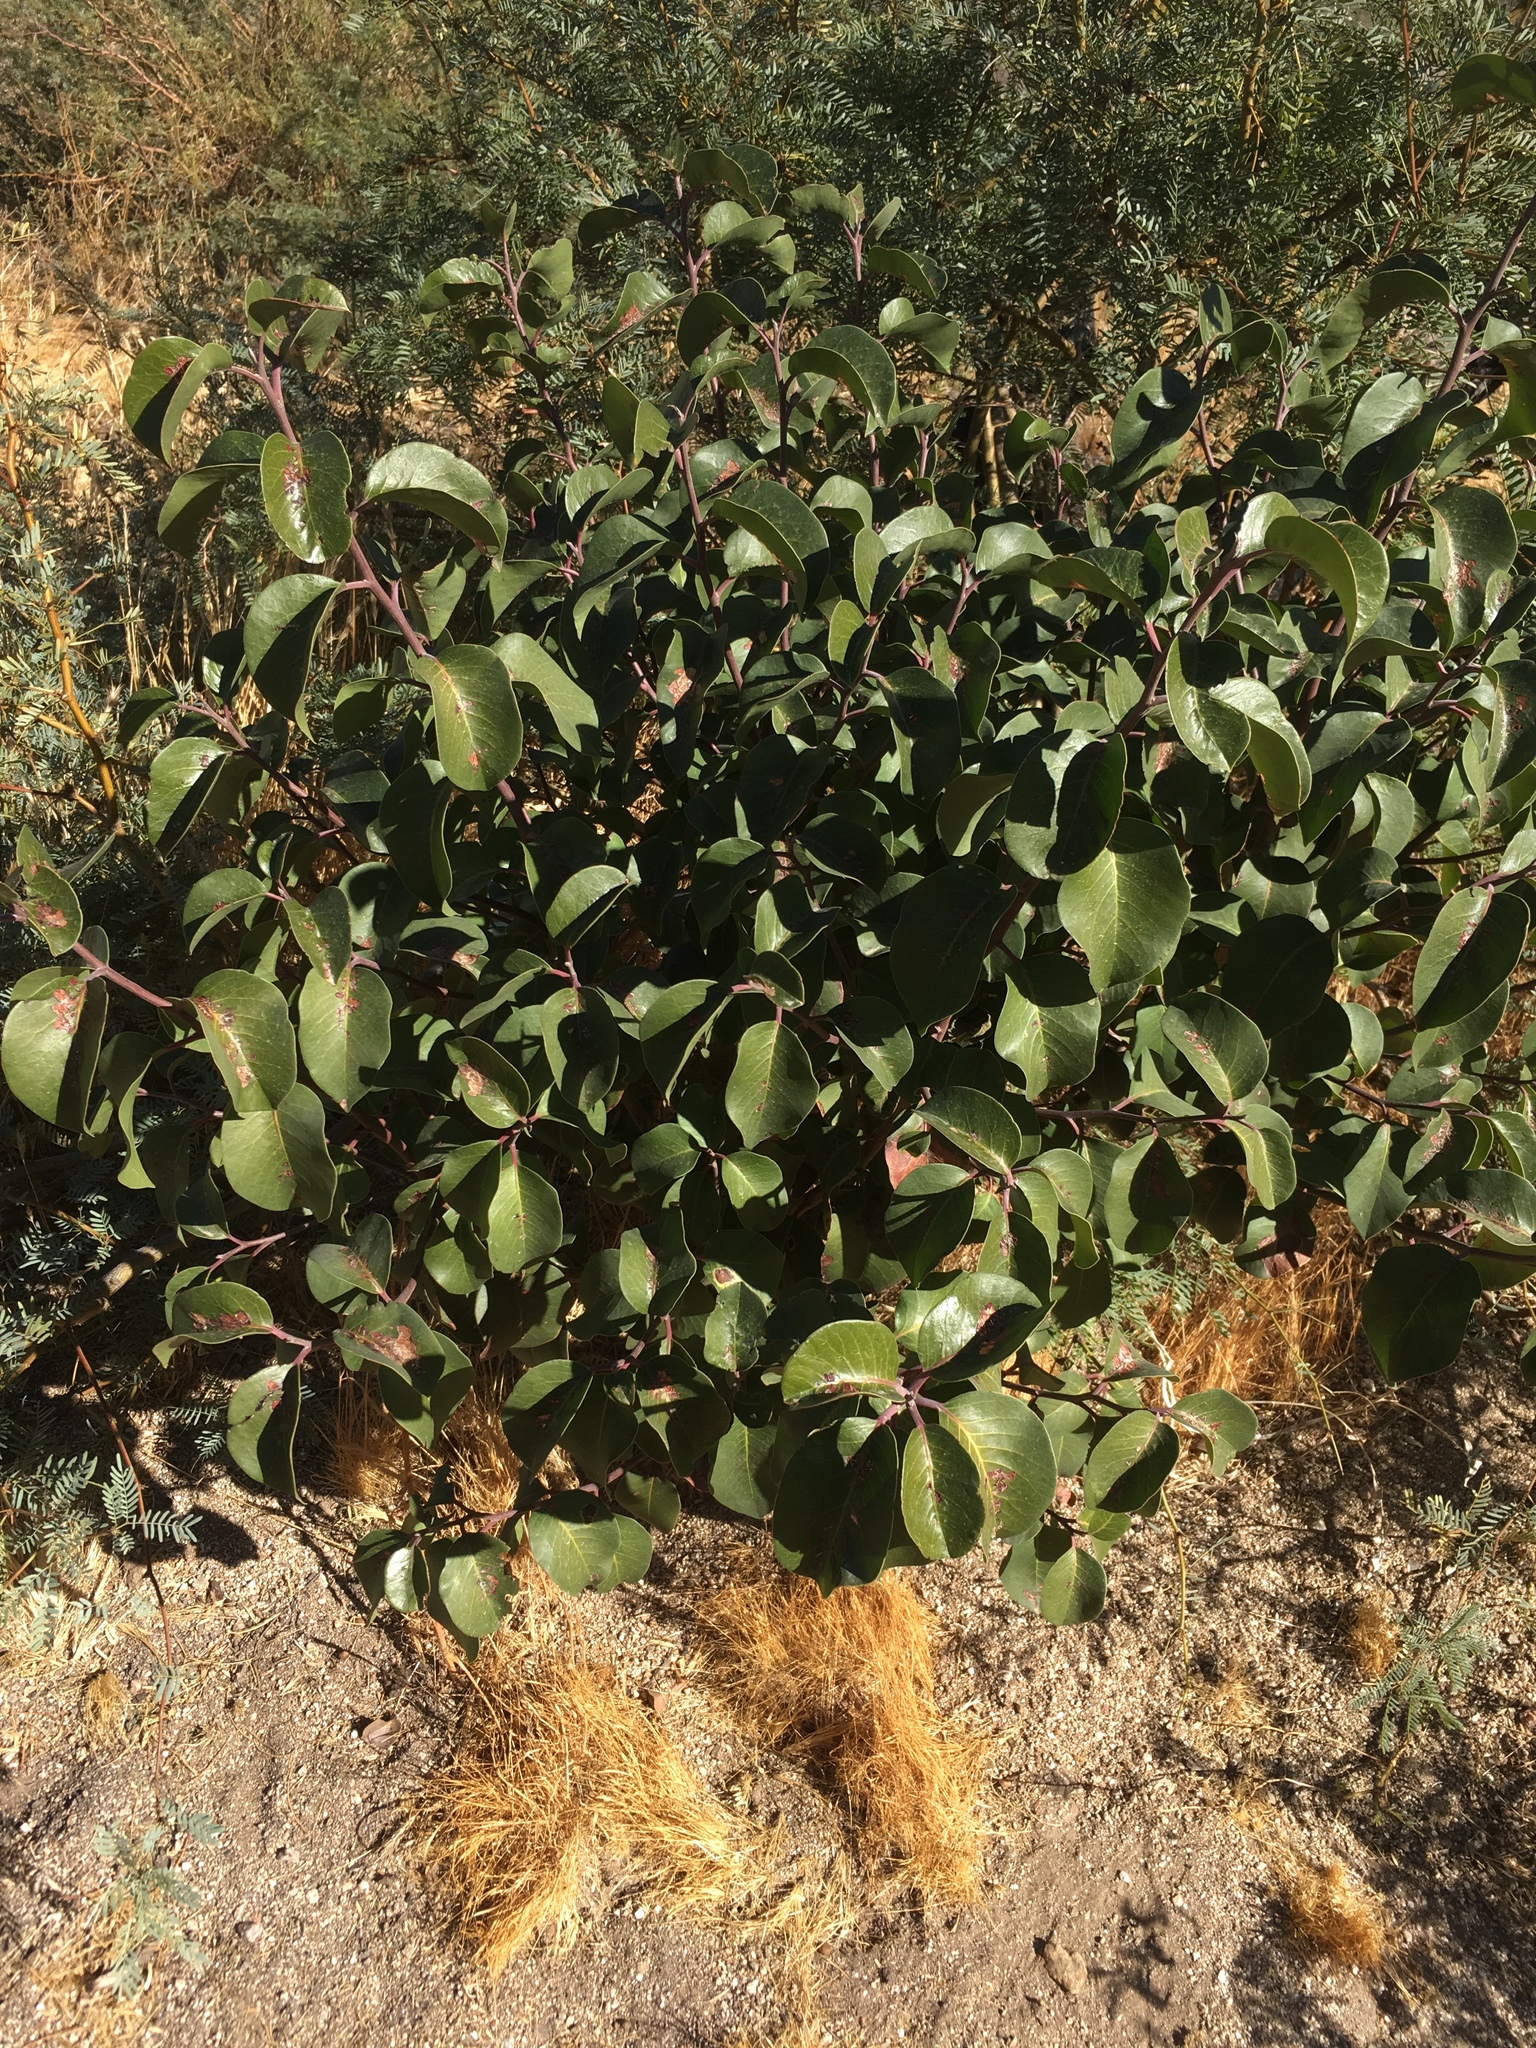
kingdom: Plantae
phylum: Tracheophyta
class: Magnoliopsida
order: Sapindales
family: Anacardiaceae
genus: Rhus
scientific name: Rhus ovata
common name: Sugar sumac
